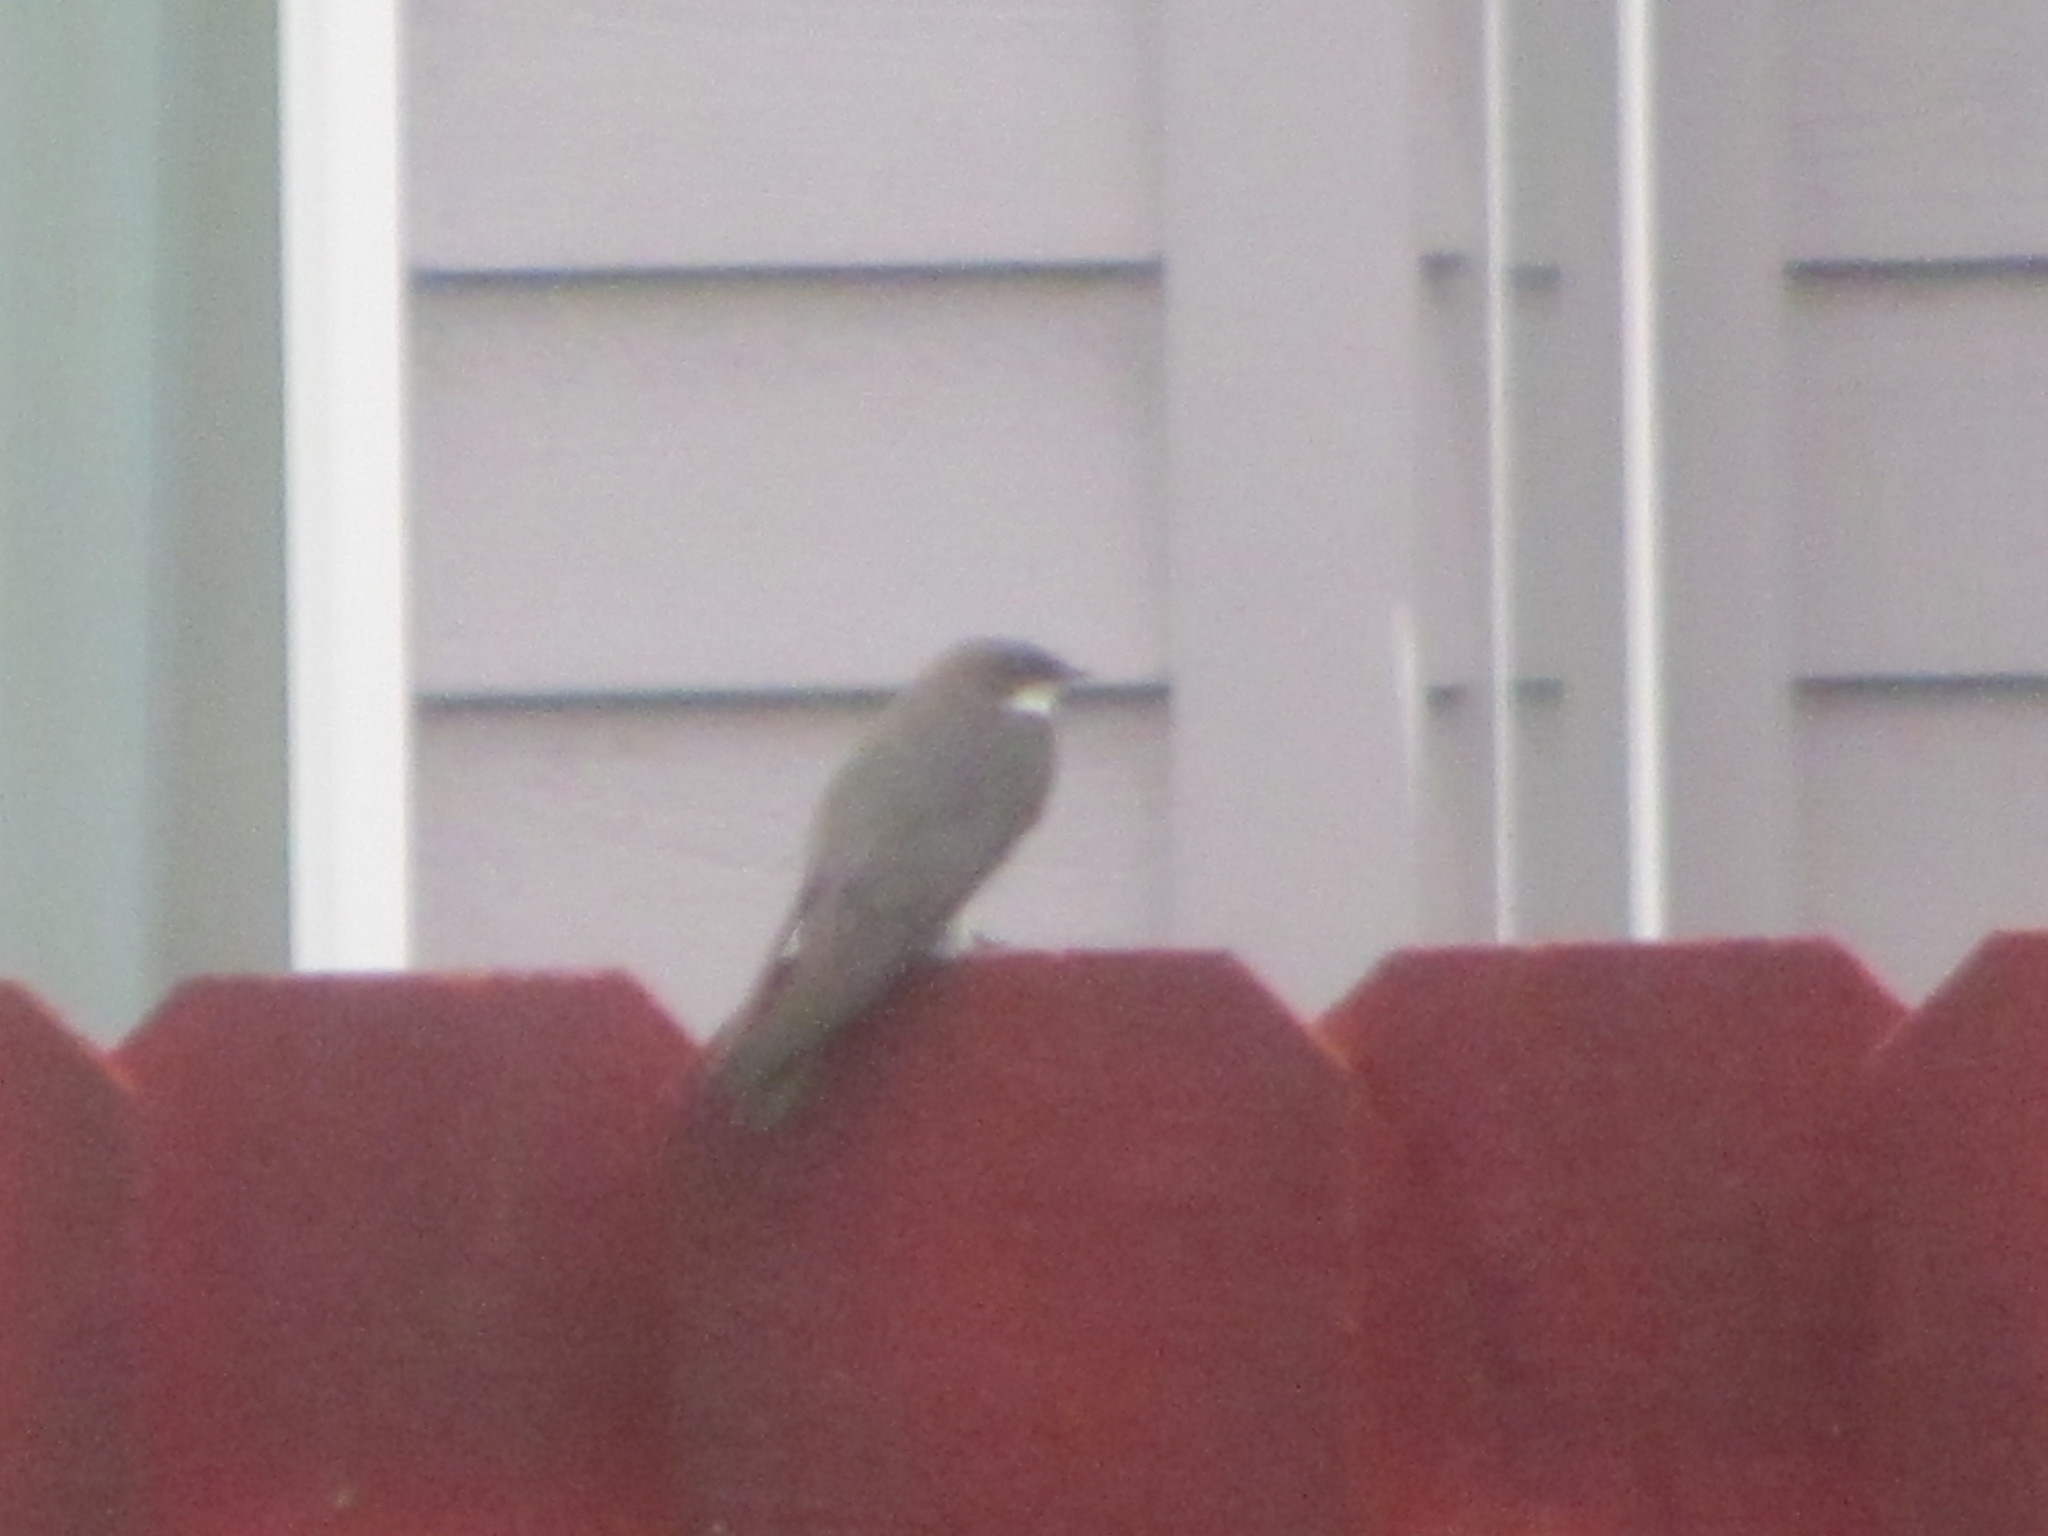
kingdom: Animalia
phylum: Chordata
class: Aves
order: Passeriformes
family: Hirundinidae
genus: Tachycineta
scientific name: Tachycineta bicolor
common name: Tree swallow
